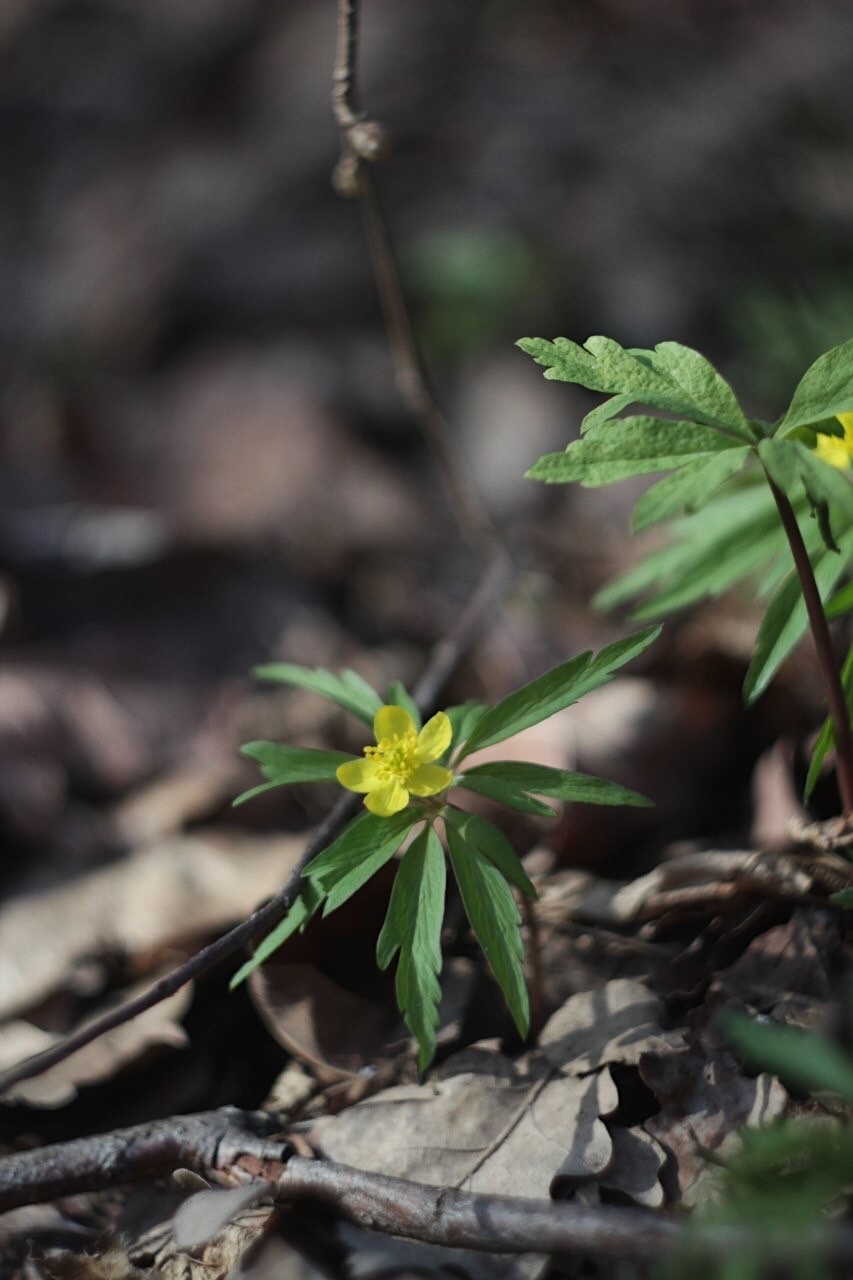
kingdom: Plantae
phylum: Tracheophyta
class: Magnoliopsida
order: Ranunculales
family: Ranunculaceae
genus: Anemone
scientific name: Anemone ranunculoides
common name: Yellow anemone
